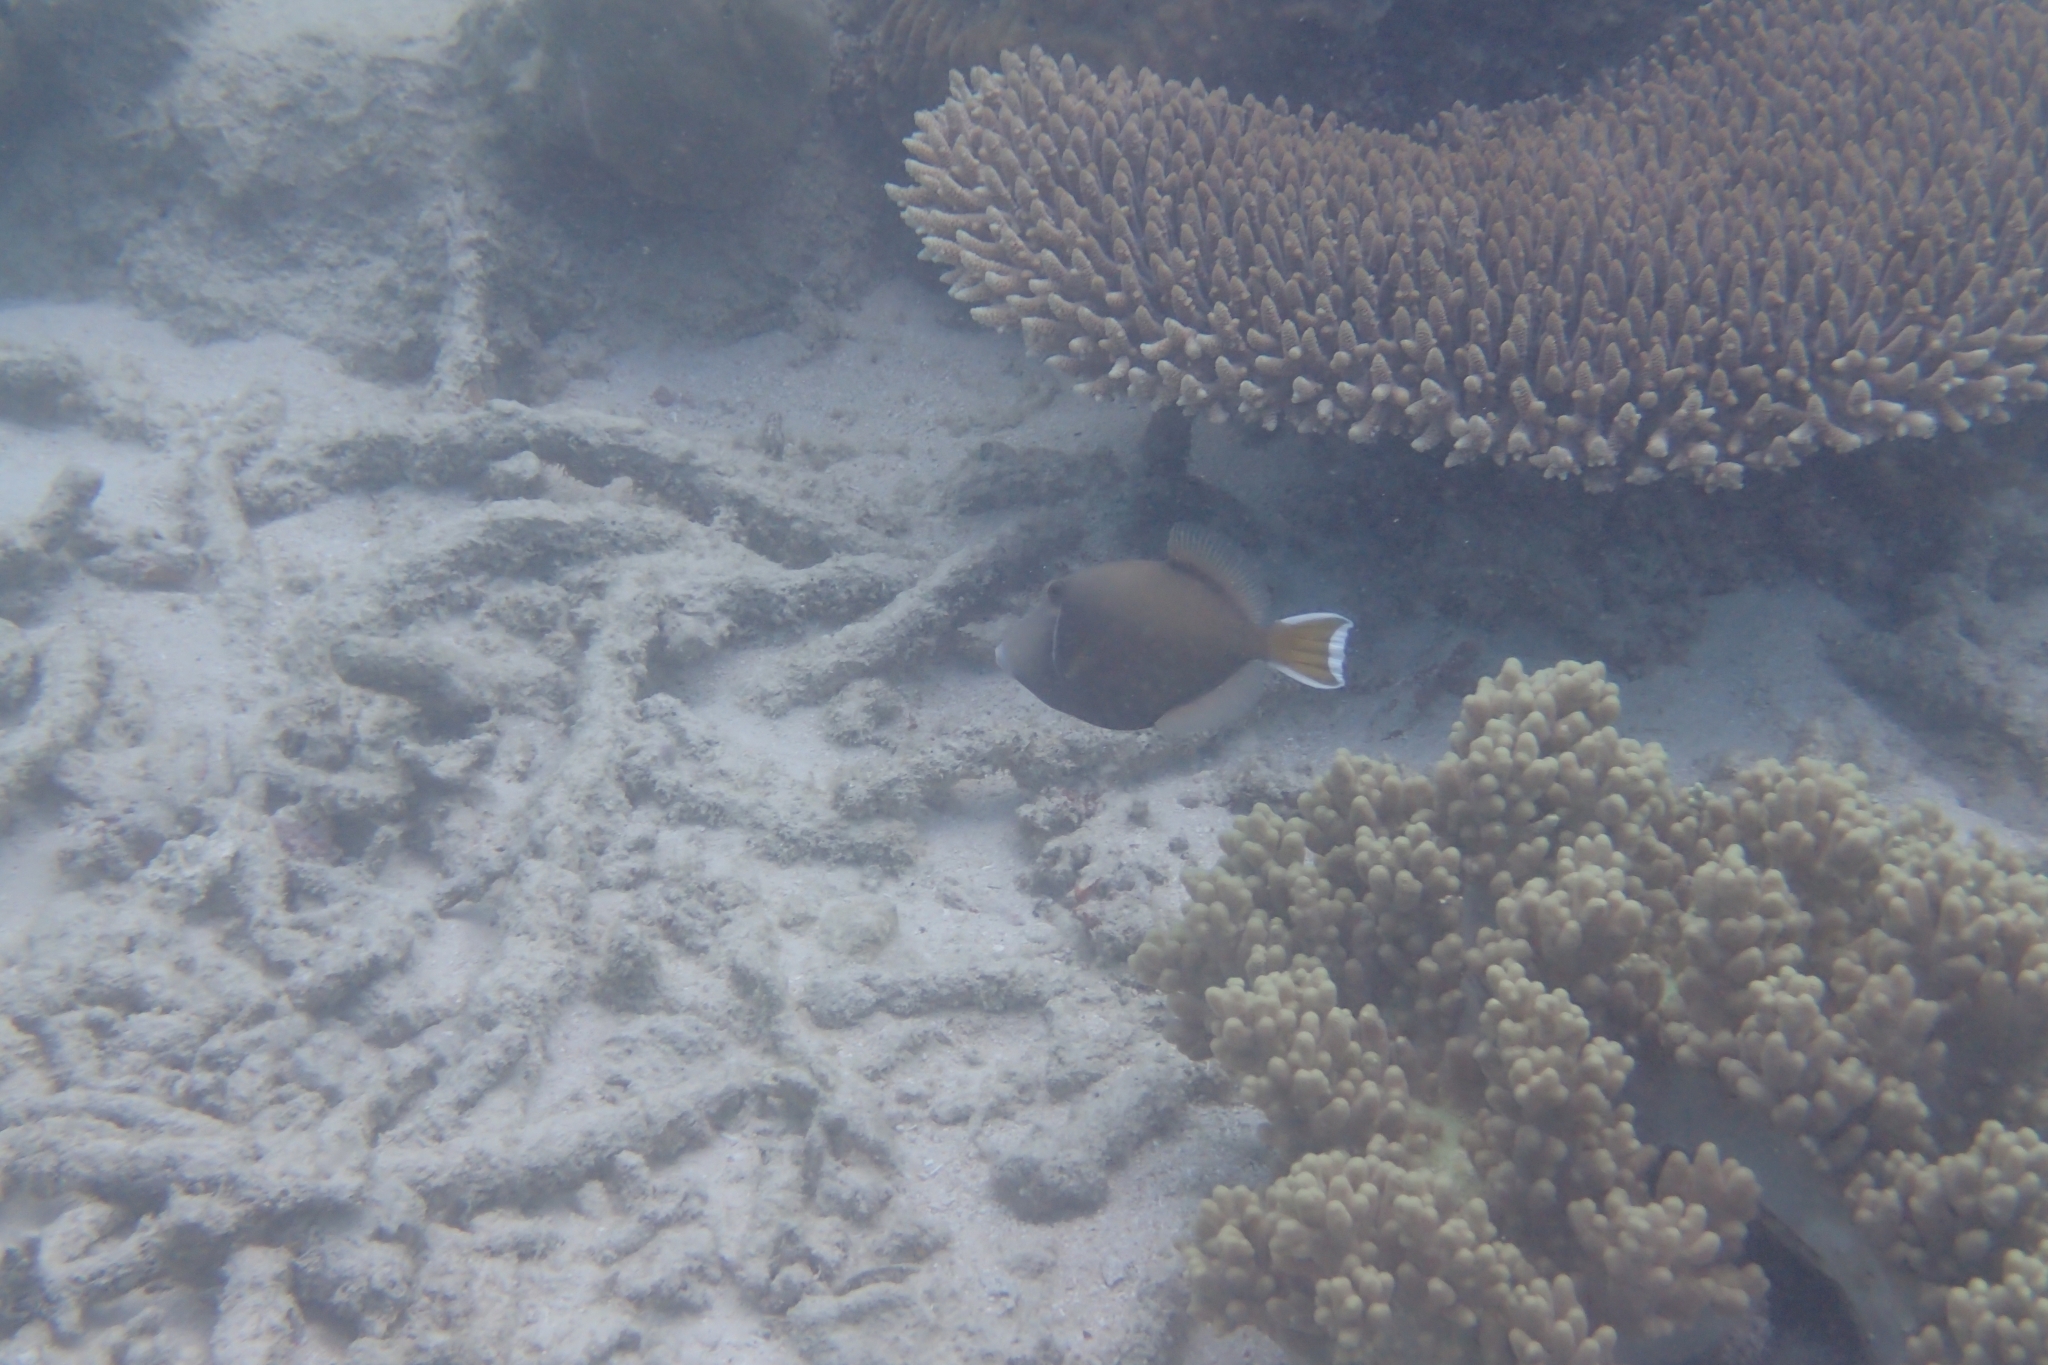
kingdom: Animalia
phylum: Chordata
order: Tetraodontiformes
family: Balistidae
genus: Sufflamen
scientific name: Sufflamen chrysopterum
